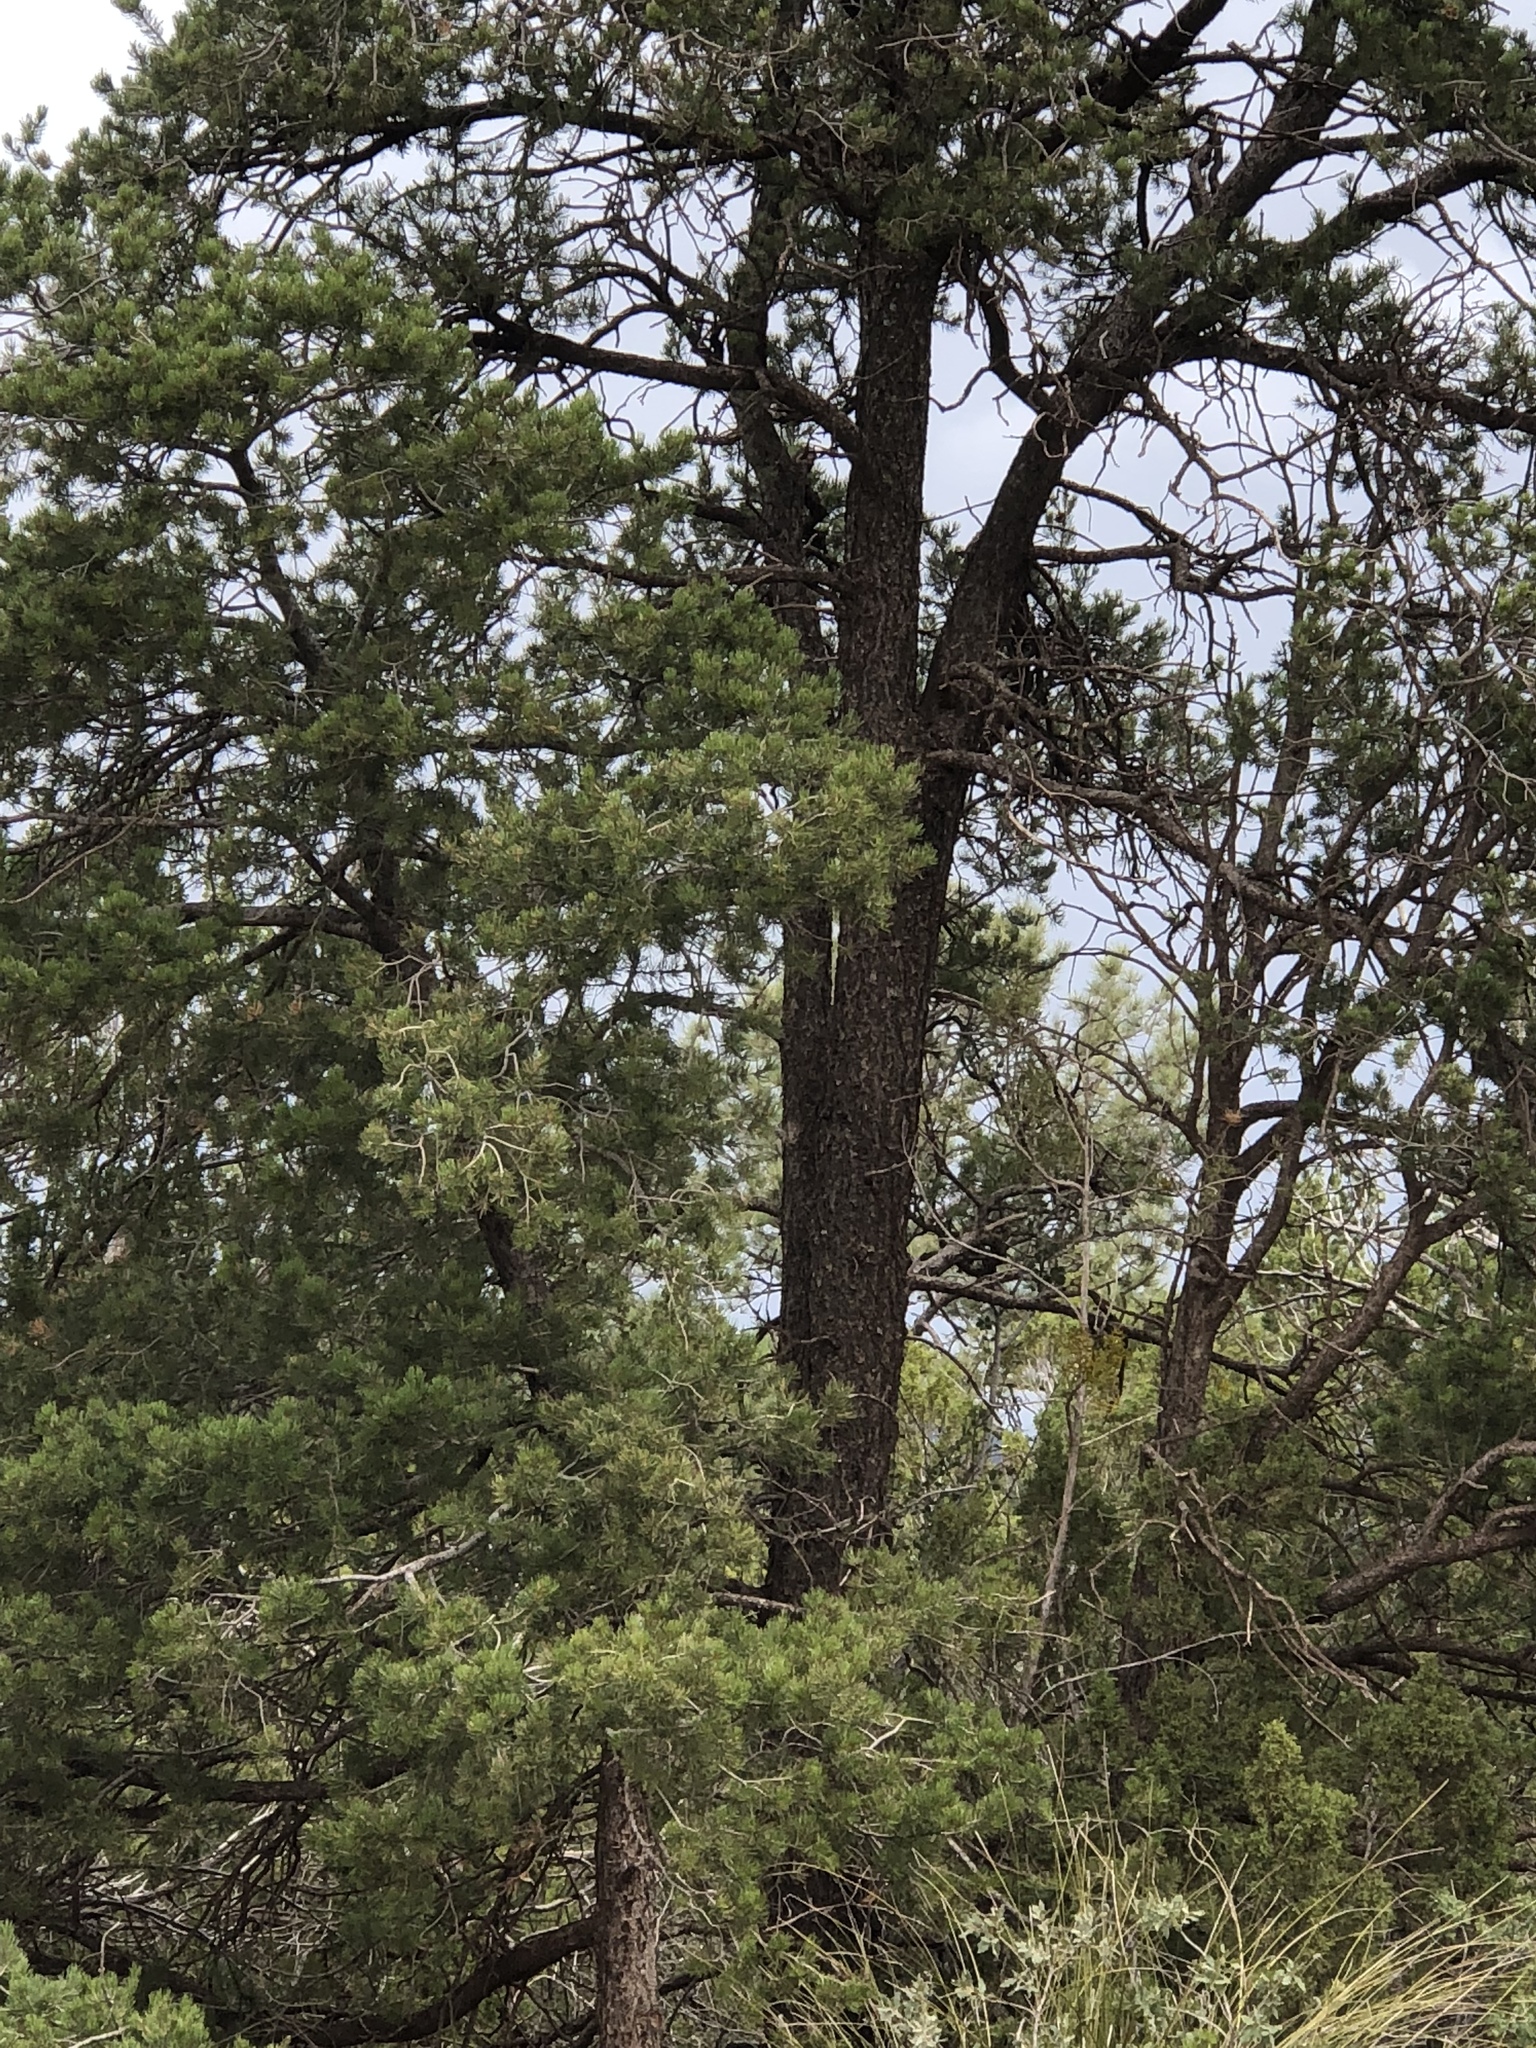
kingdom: Plantae
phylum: Tracheophyta
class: Pinopsida
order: Pinales
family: Pinaceae
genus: Pinus
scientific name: Pinus edulis
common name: Colorado pinyon
